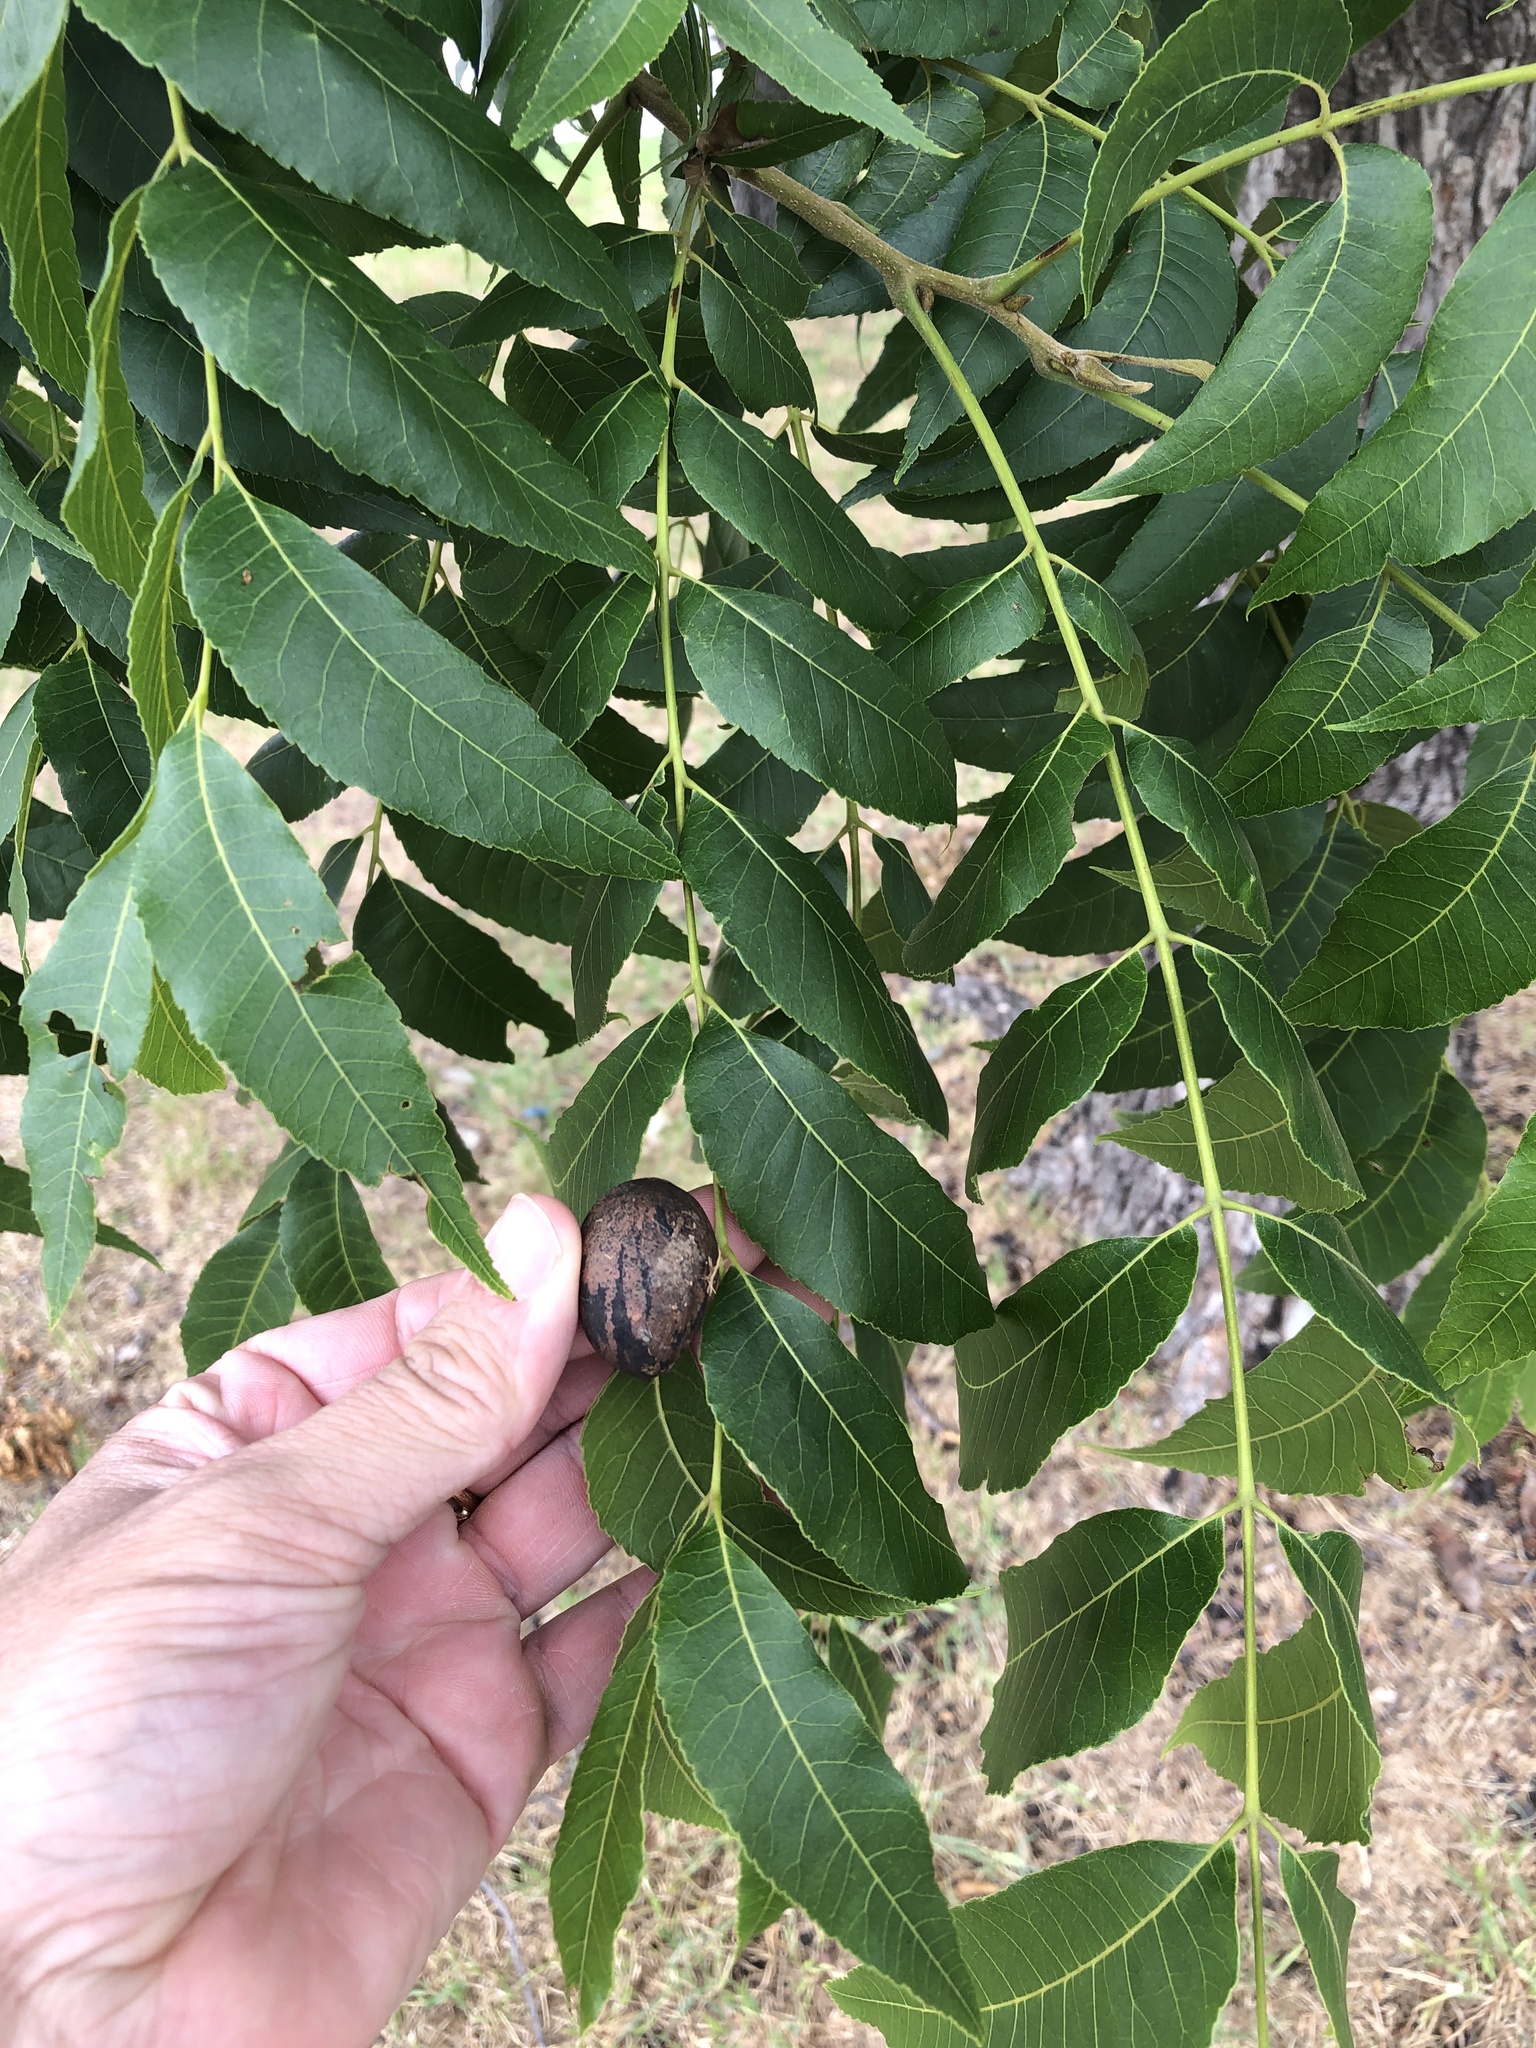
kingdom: Plantae
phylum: Tracheophyta
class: Magnoliopsida
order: Fagales
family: Juglandaceae
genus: Carya
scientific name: Carya illinoinensis
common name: Pecan
